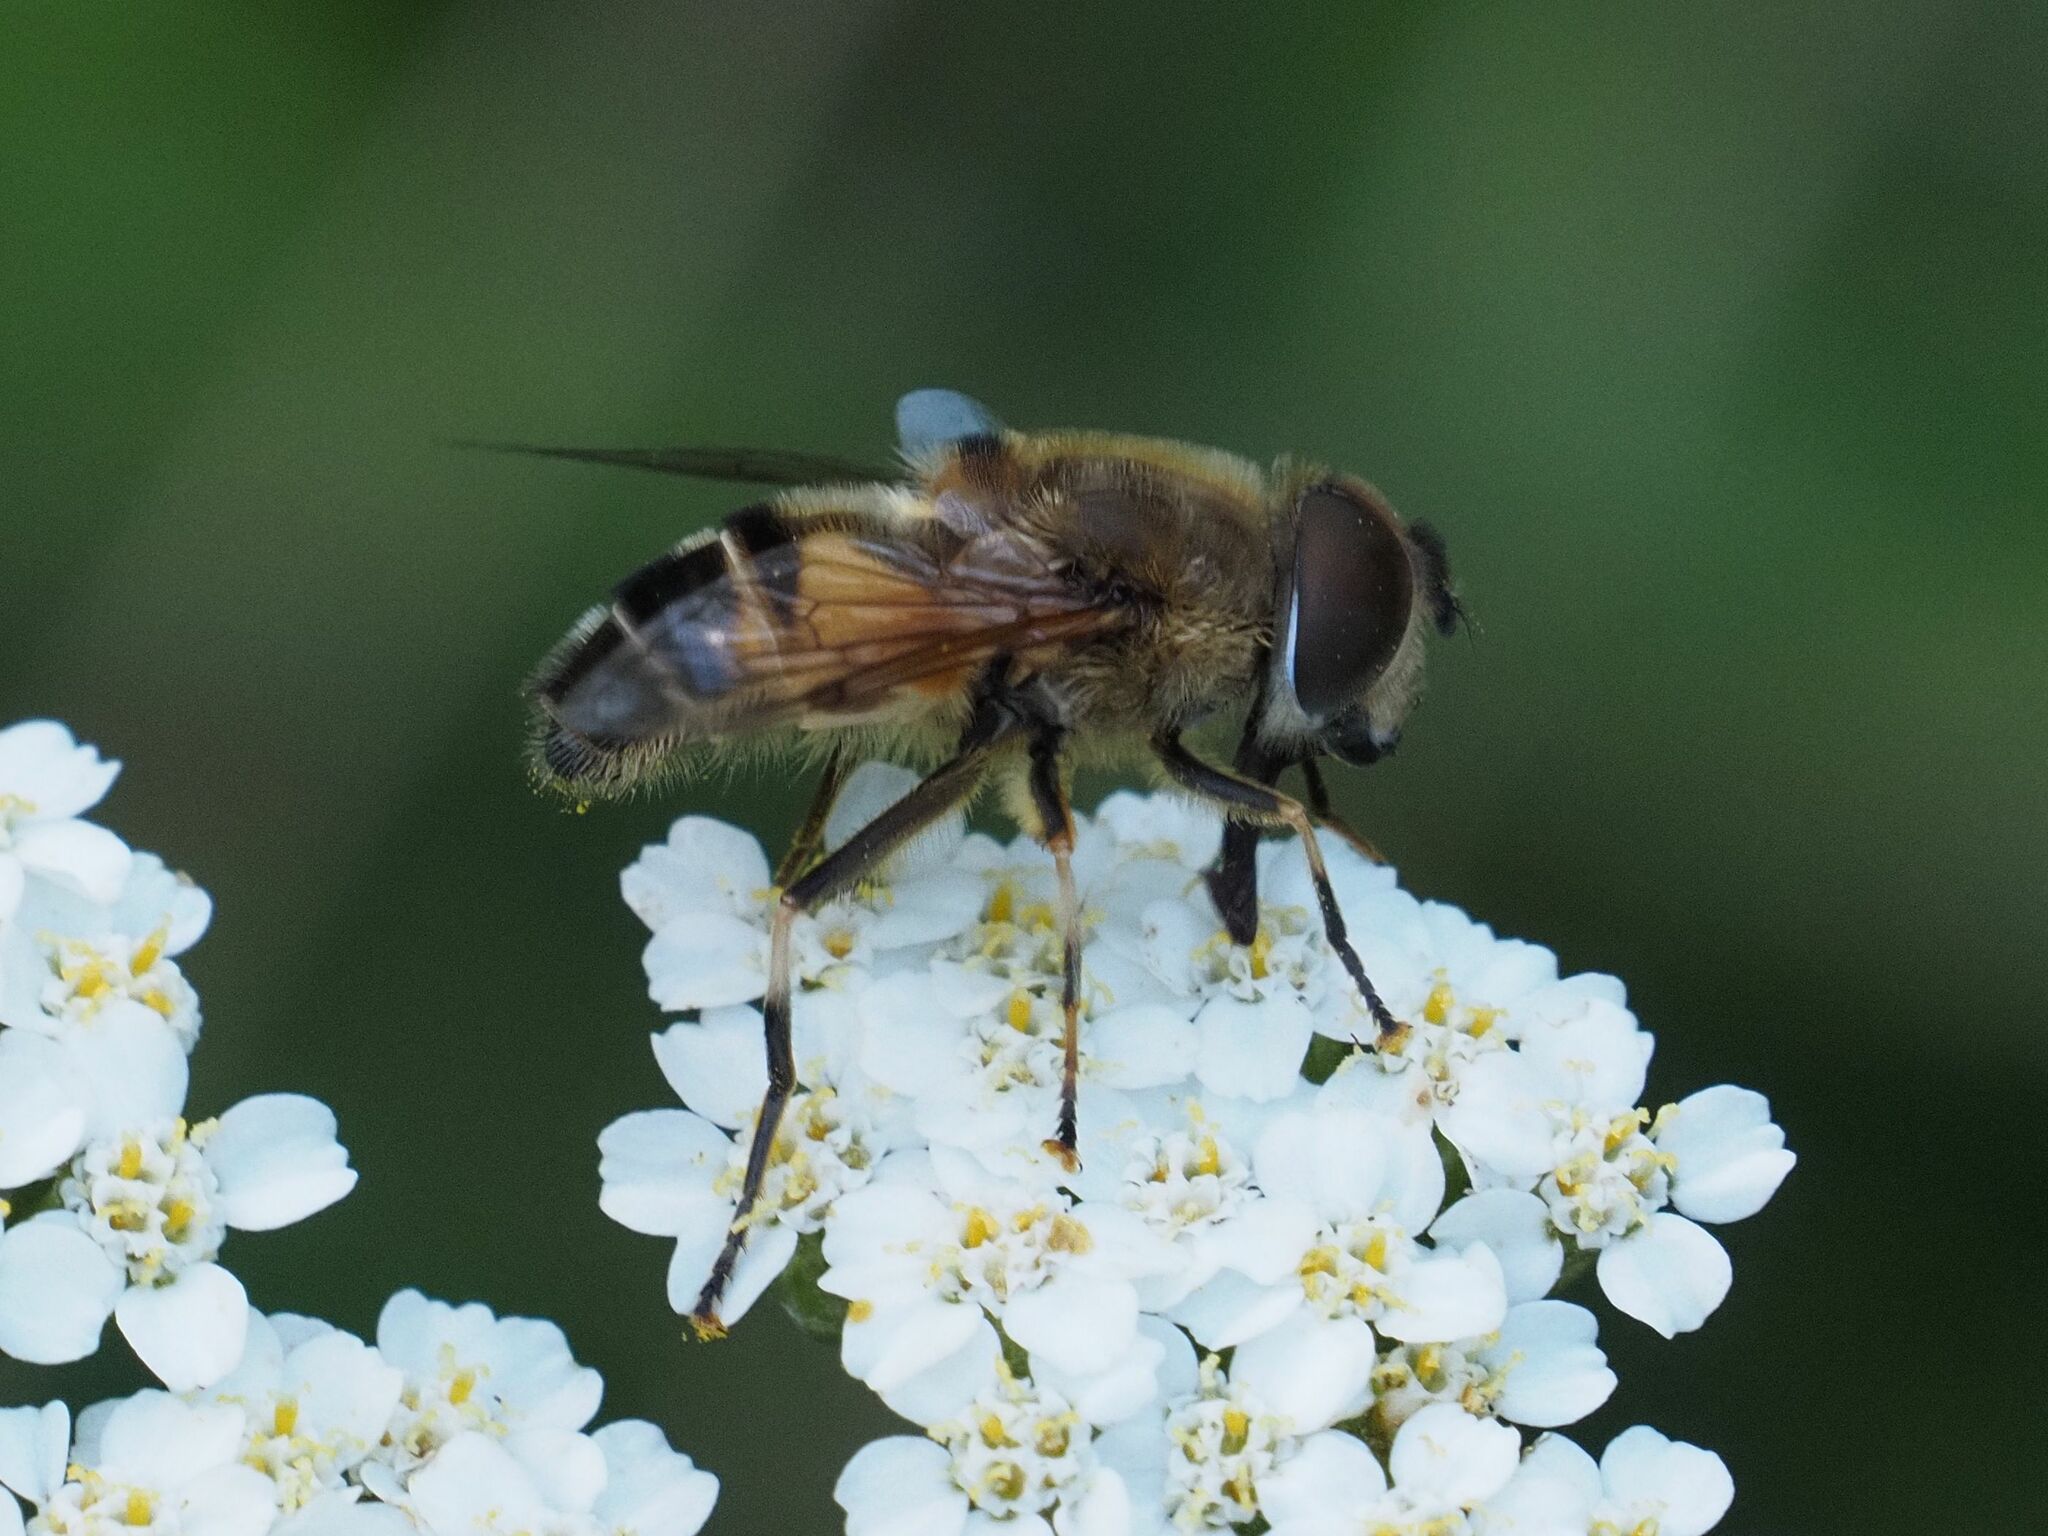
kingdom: Animalia
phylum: Arthropoda
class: Insecta
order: Diptera
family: Syrphidae
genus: Eristalis
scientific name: Eristalis pertinax
